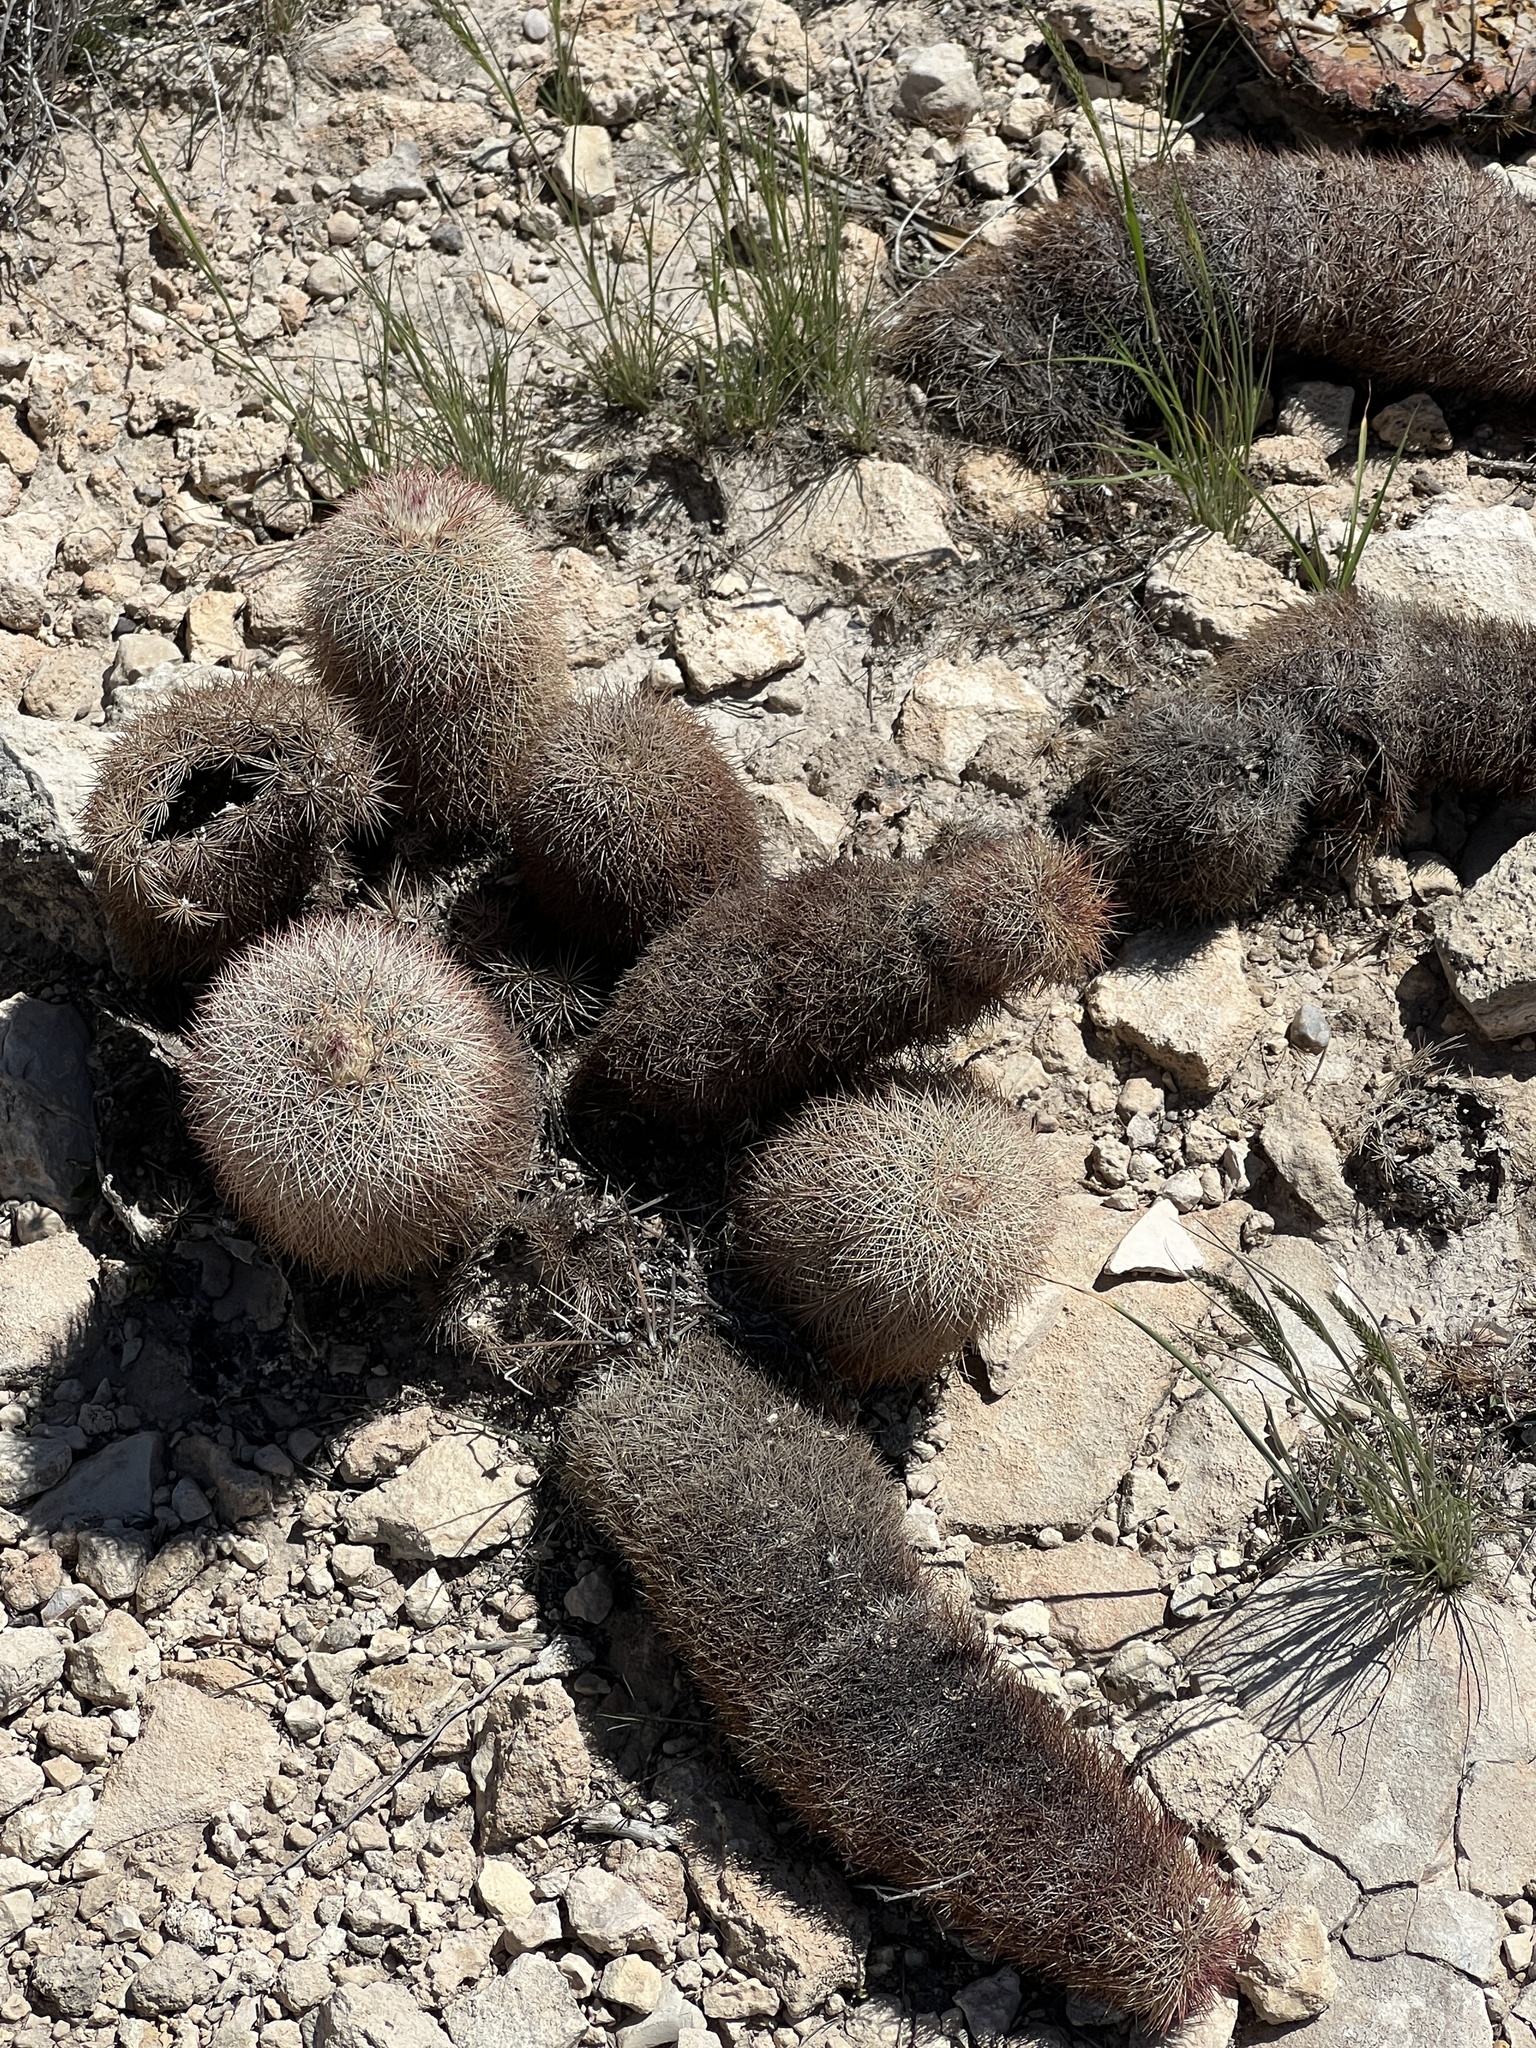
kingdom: Plantae
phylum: Tracheophyta
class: Magnoliopsida
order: Caryophyllales
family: Cactaceae
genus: Echinocereus
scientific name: Echinocereus dasyacanthus
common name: Spiny hedgehog cactus
